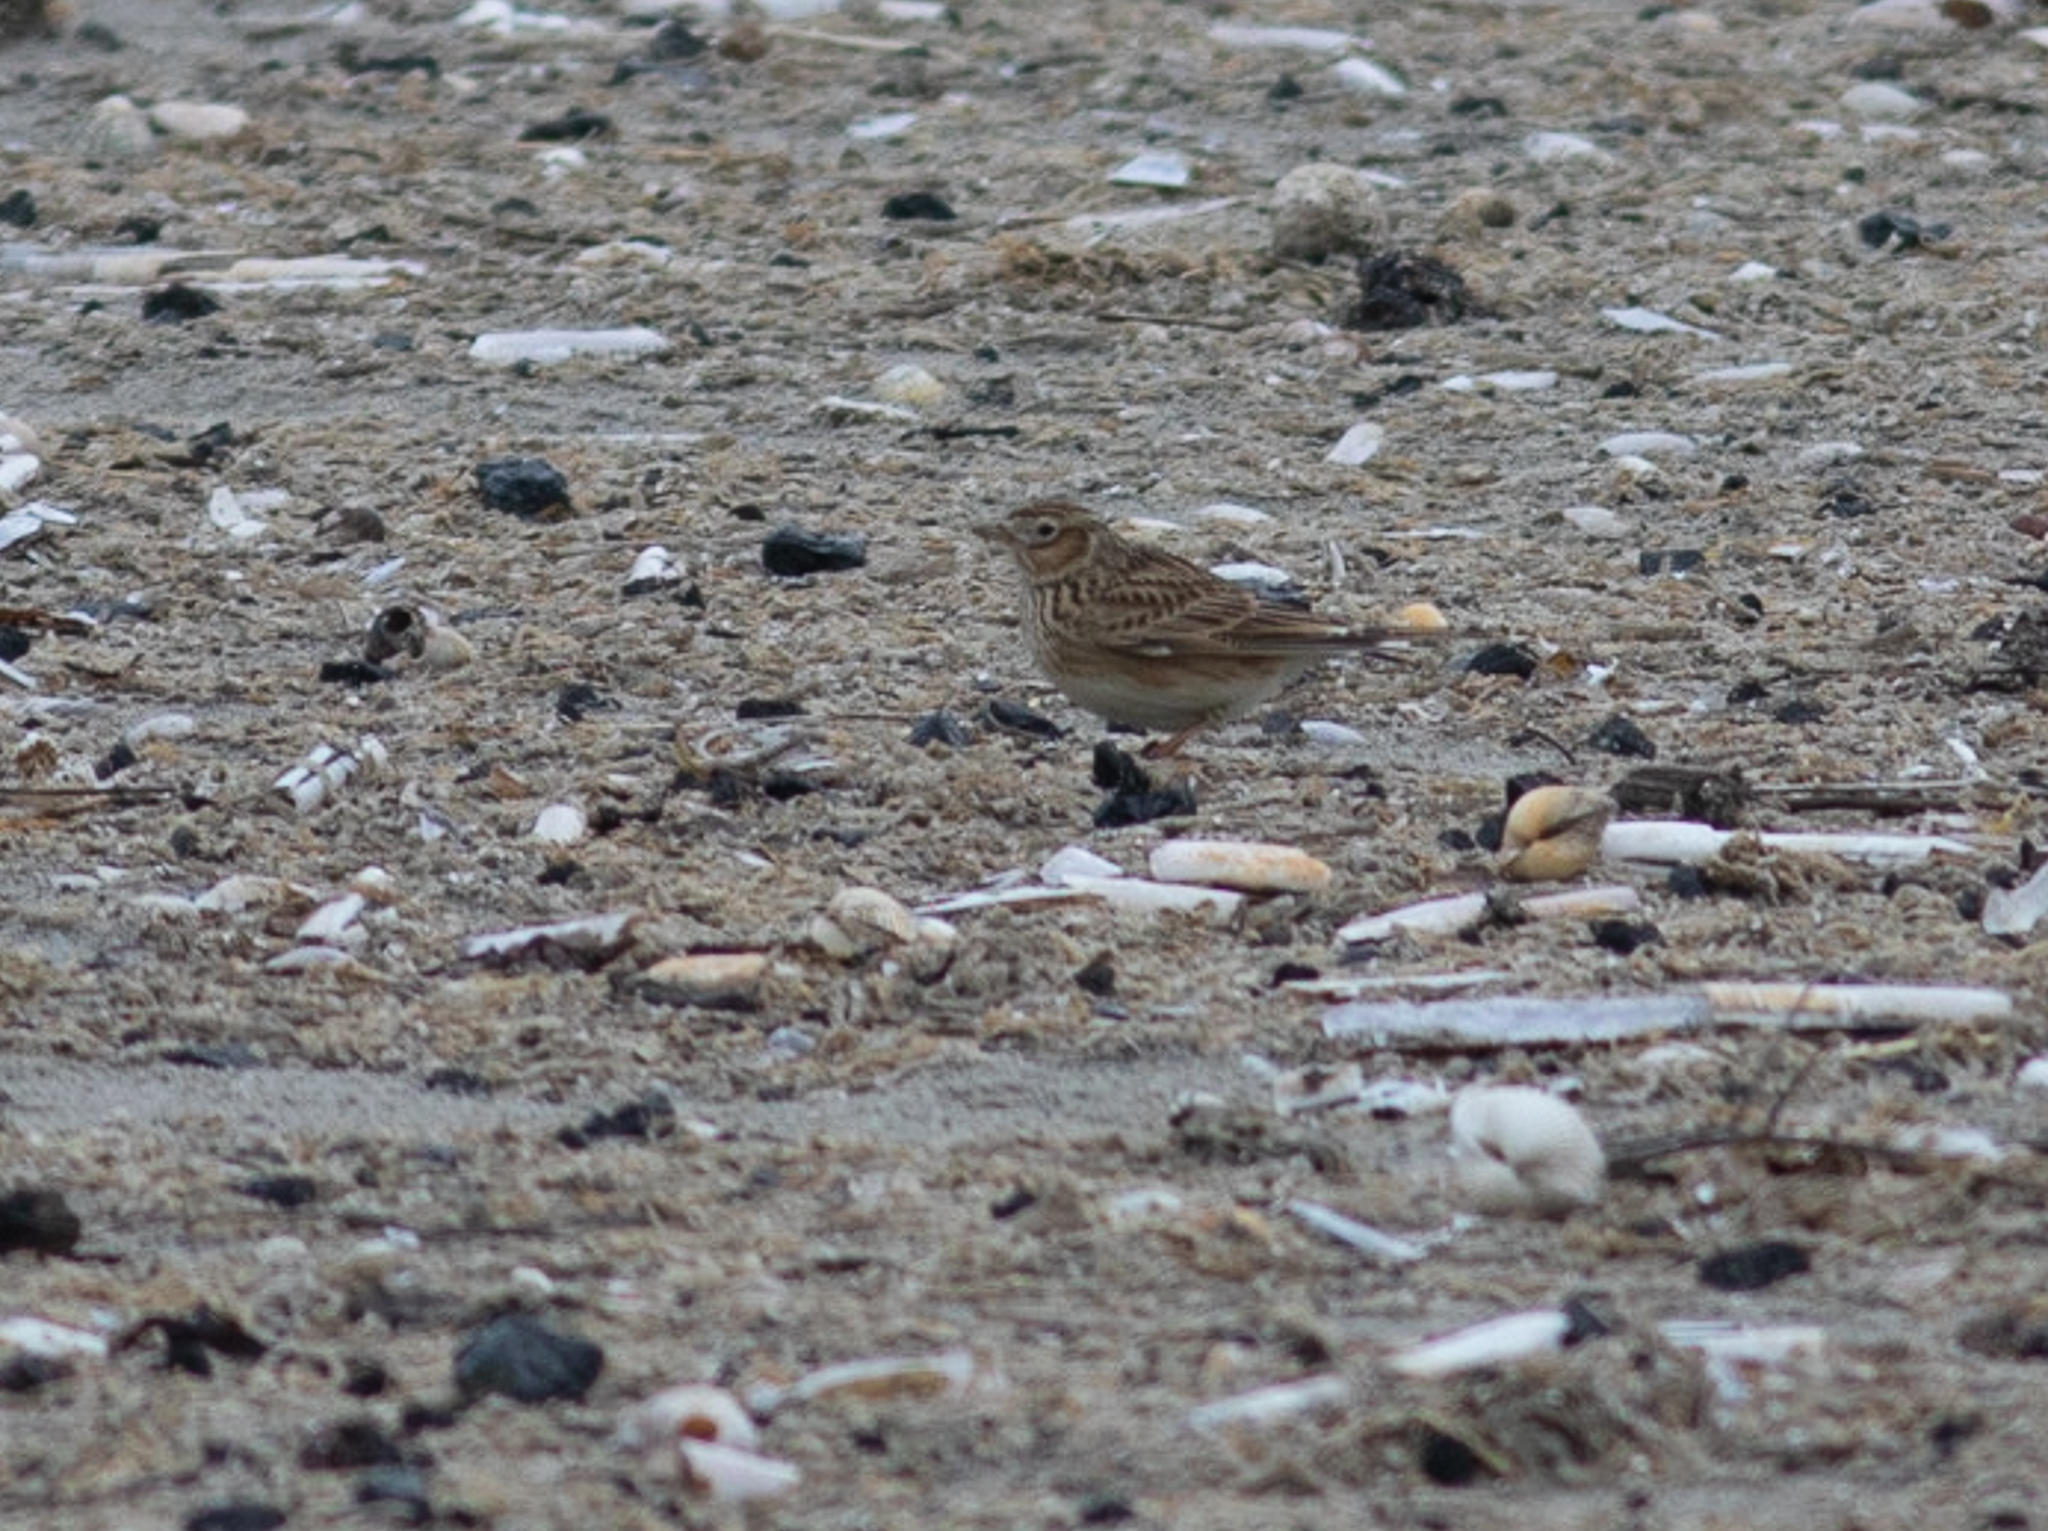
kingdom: Animalia
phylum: Chordata
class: Aves
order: Passeriformes
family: Alaudidae
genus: Alauda
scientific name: Alauda arvensis
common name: Eurasian skylark
